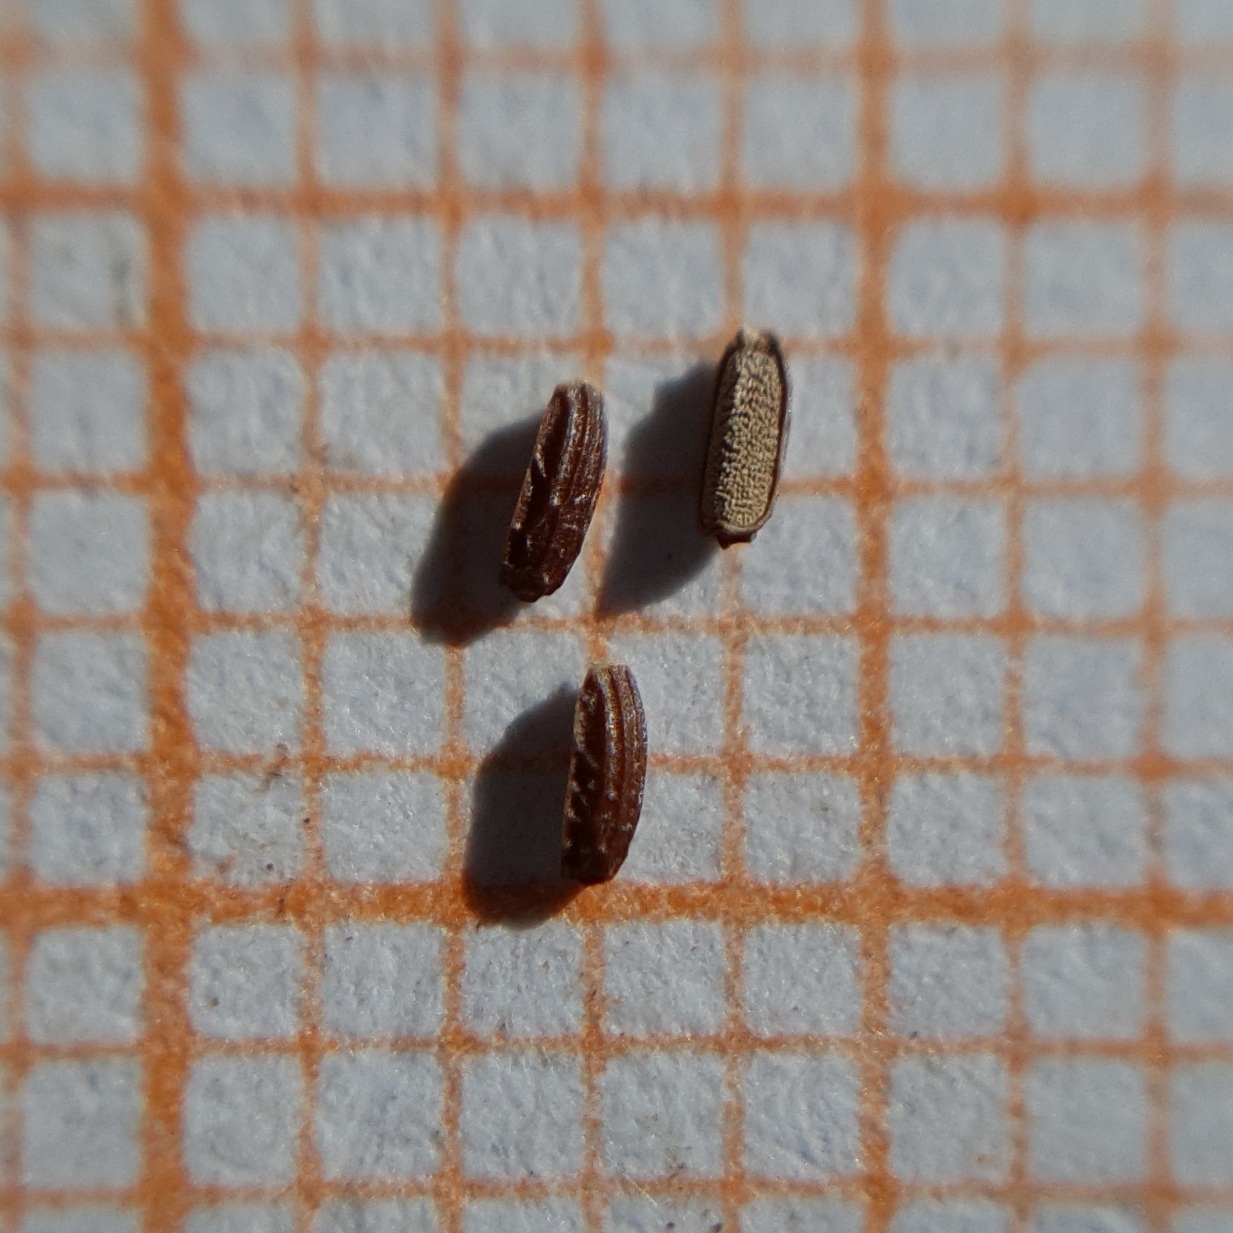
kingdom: Plantae
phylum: Tracheophyta
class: Magnoliopsida
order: Lamiales
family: Verbenaceae
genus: Verbena
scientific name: Verbena officinalis
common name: Vervain
